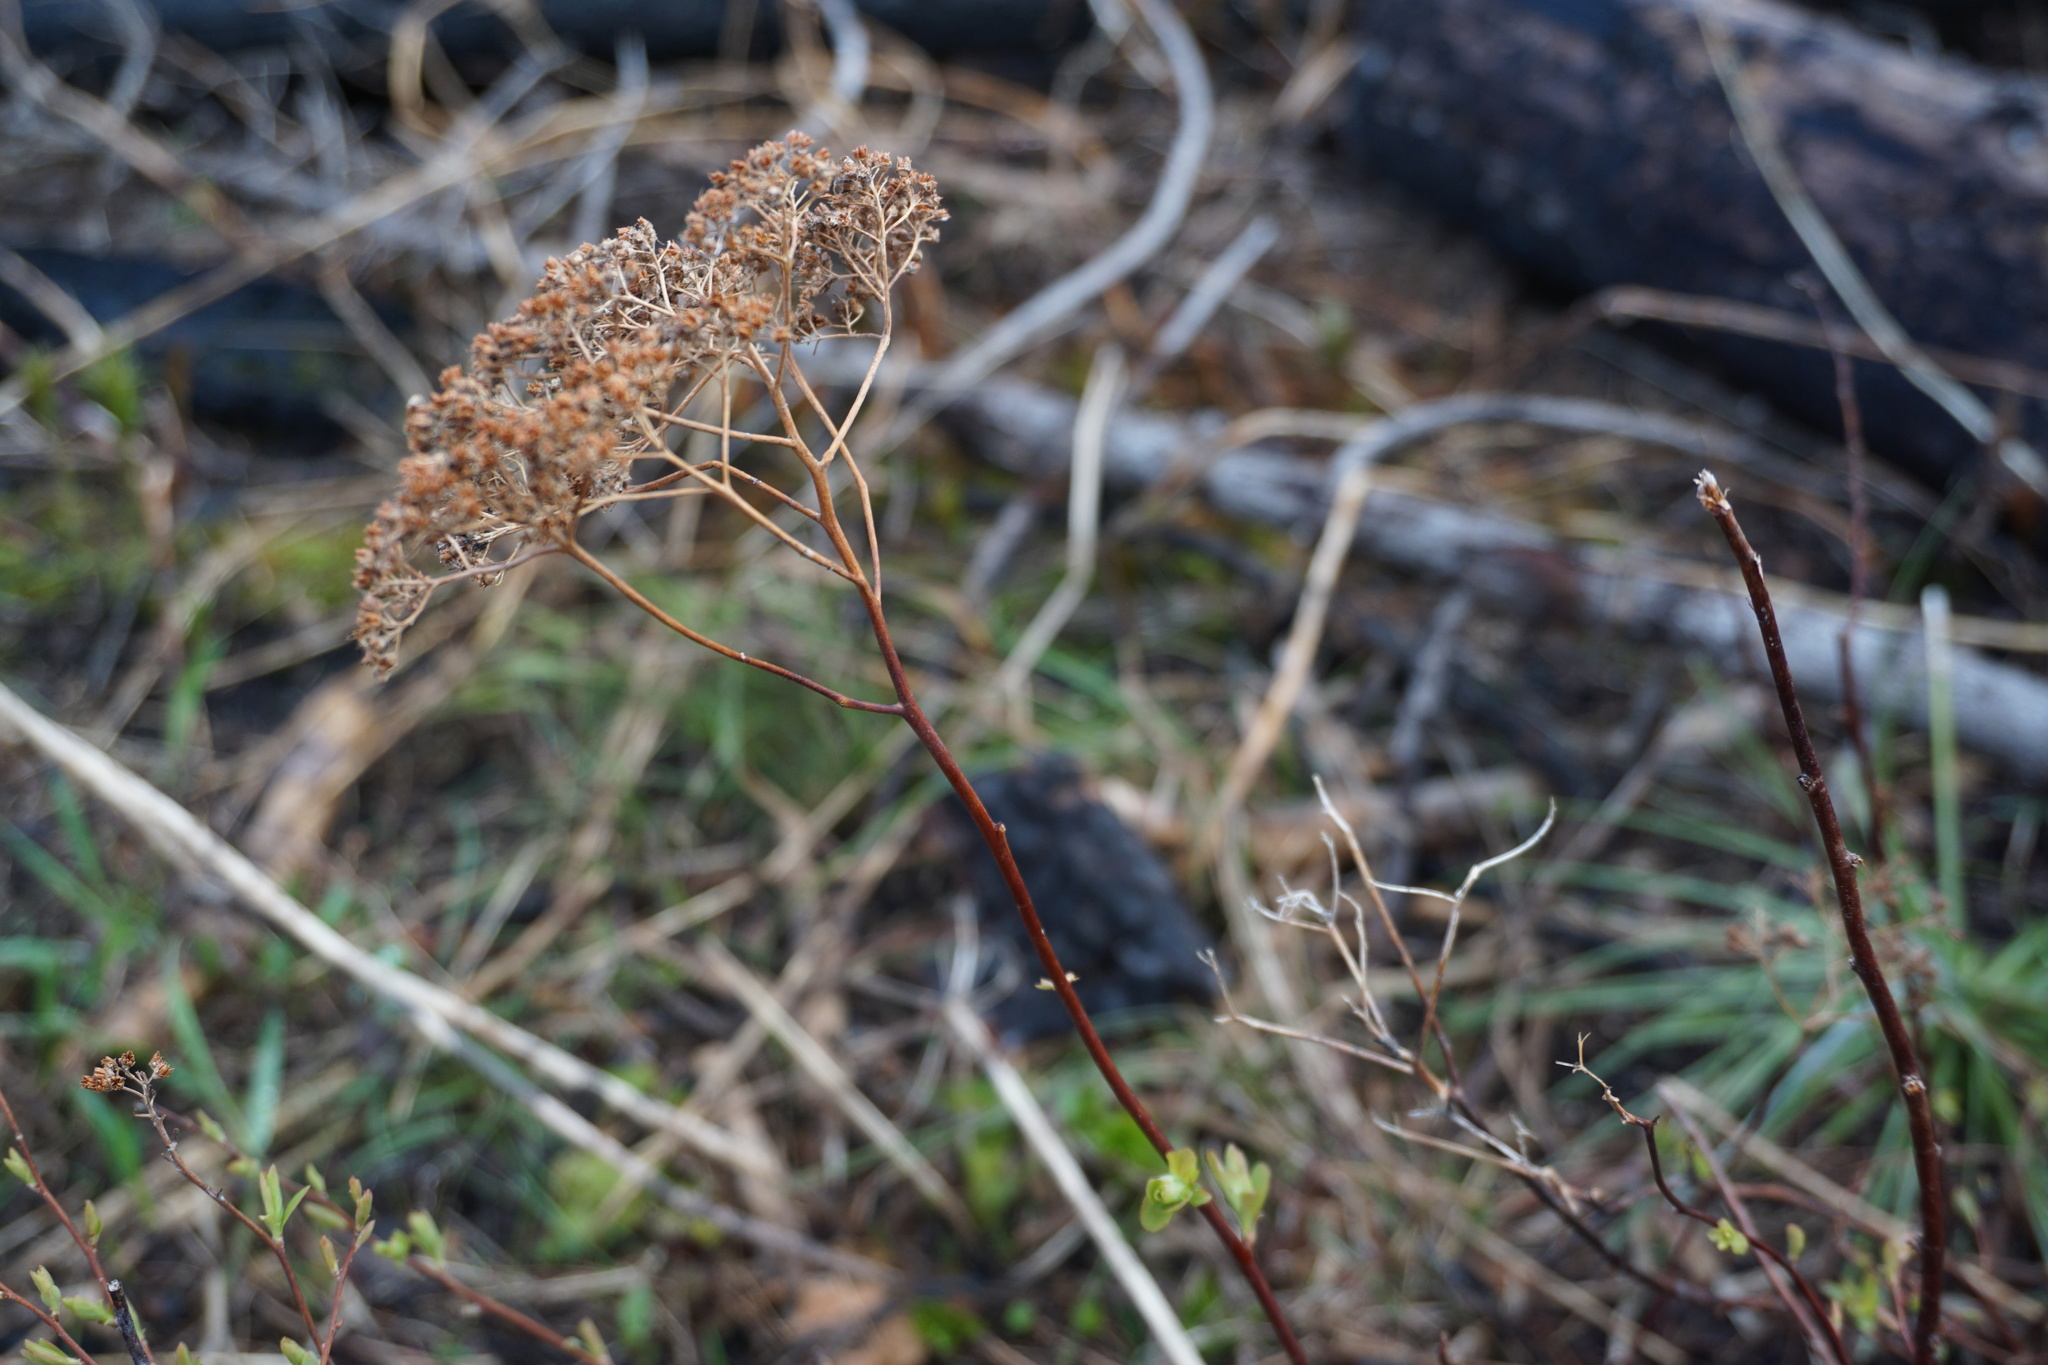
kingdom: Plantae
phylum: Tracheophyta
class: Magnoliopsida
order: Rosales
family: Rosaceae
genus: Spiraea
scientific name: Spiraea lucida
